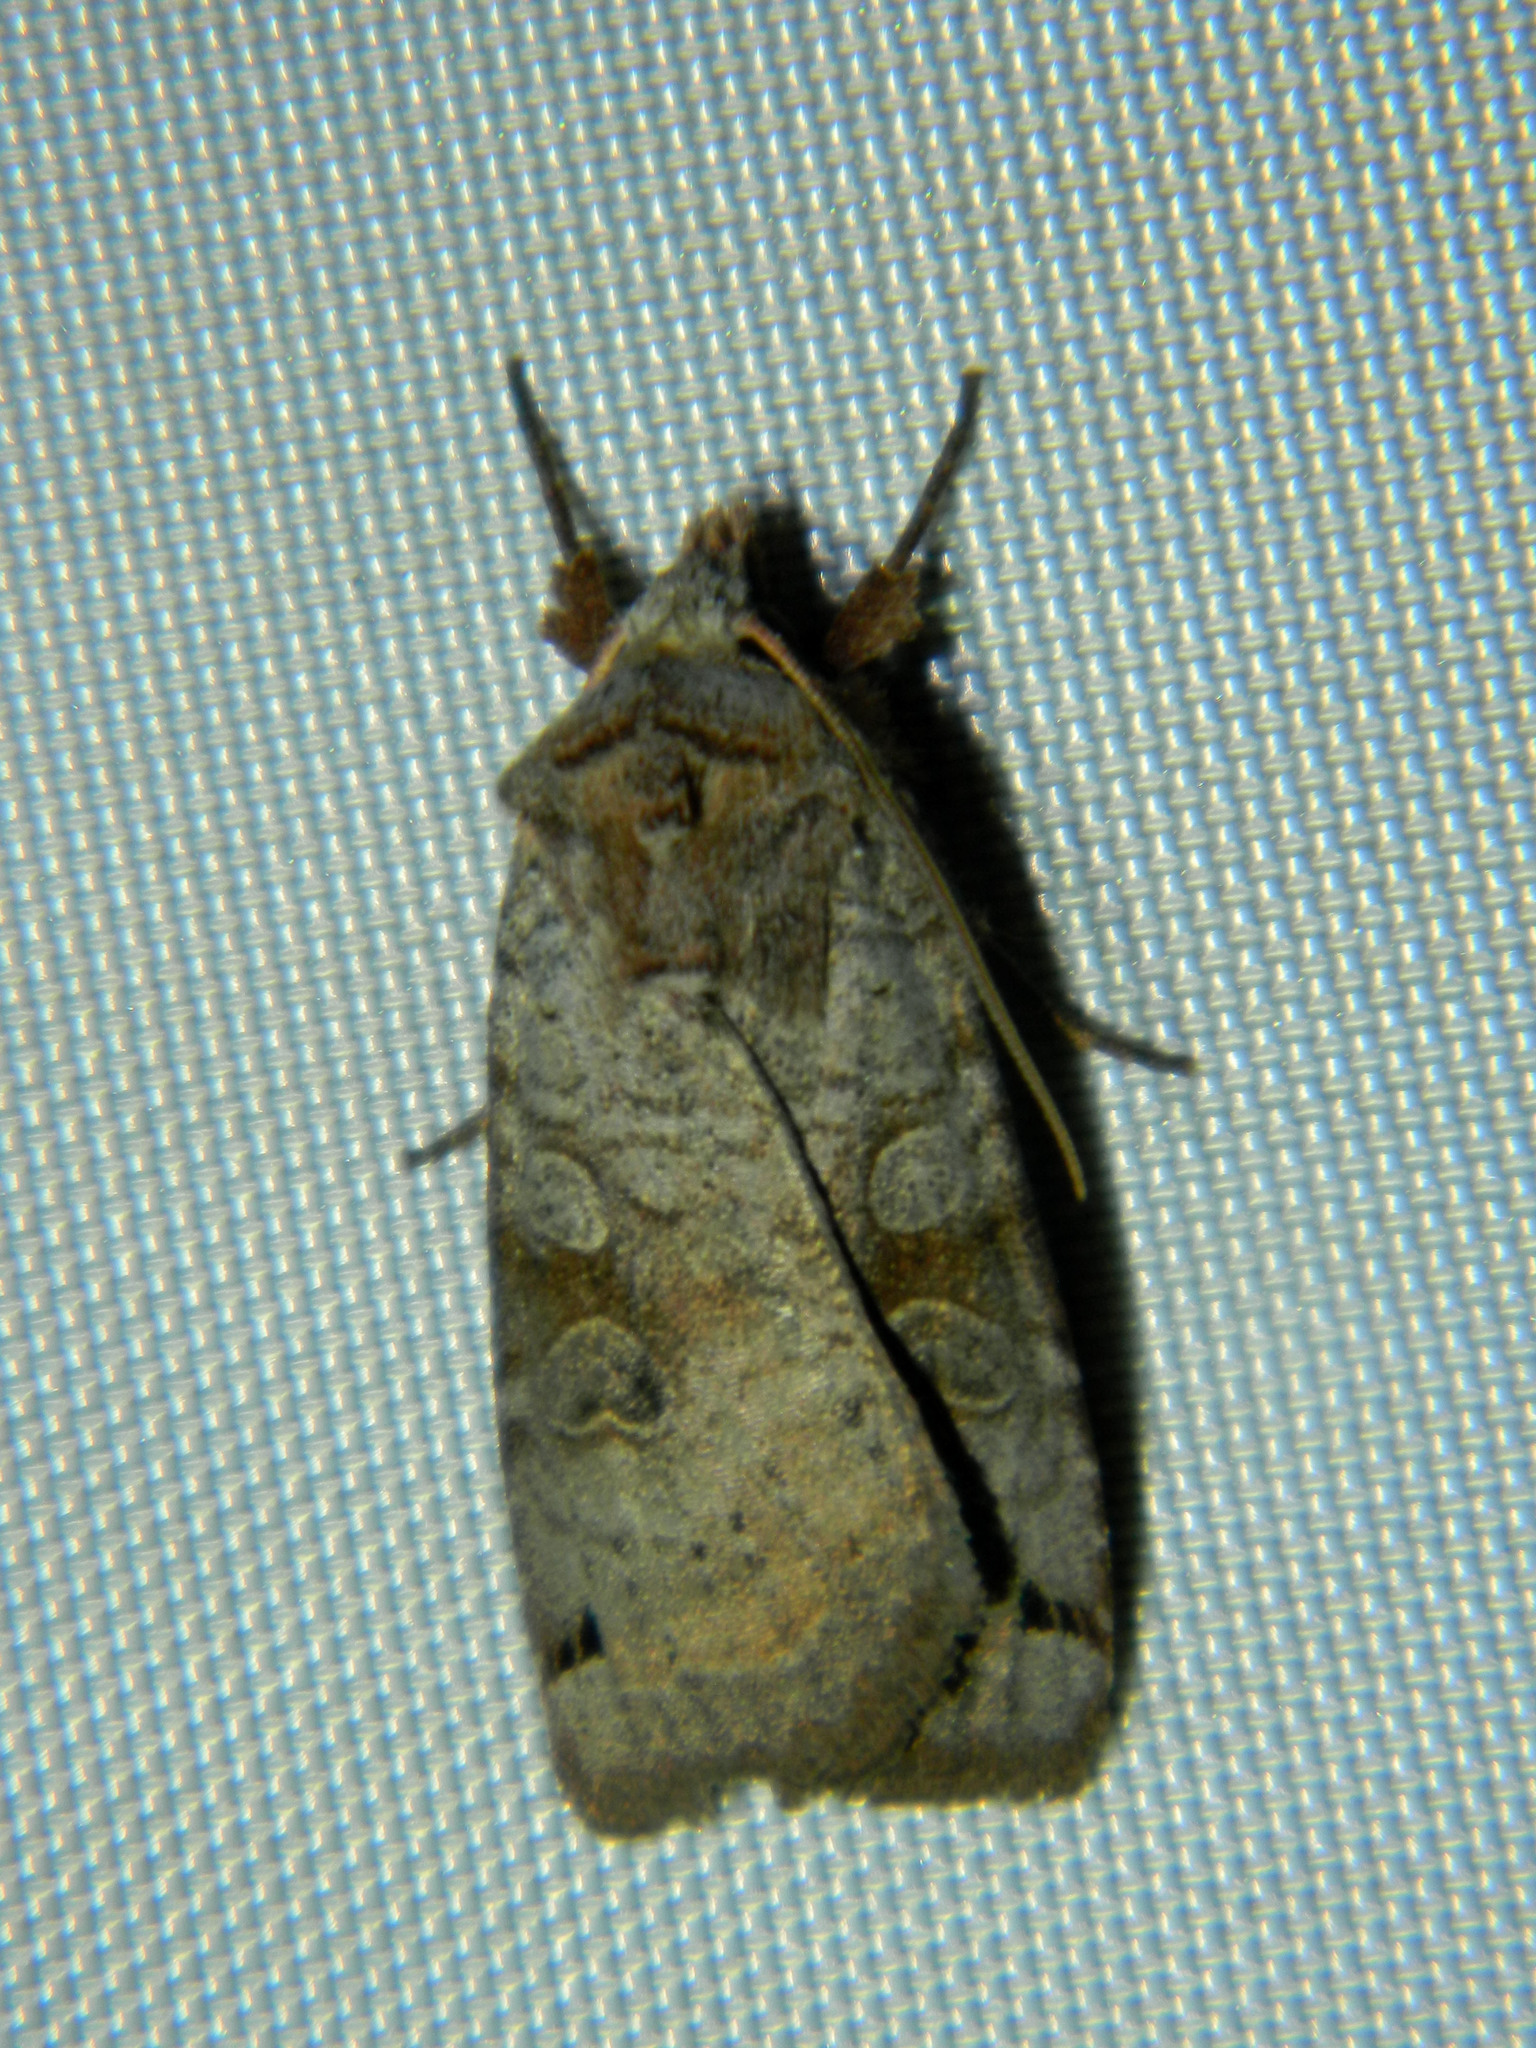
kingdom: Animalia
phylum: Arthropoda
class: Insecta
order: Lepidoptera
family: Noctuidae
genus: Xestia
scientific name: Xestia smithii
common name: Smith's dart
